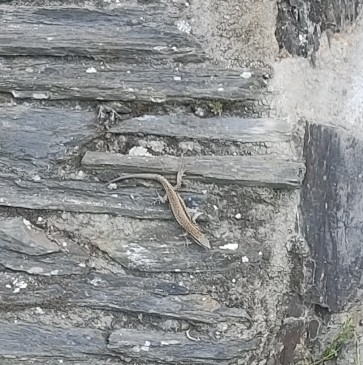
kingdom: Animalia
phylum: Chordata
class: Squamata
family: Lacertidae
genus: Podarcis
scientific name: Podarcis muralis
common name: Common wall lizard
